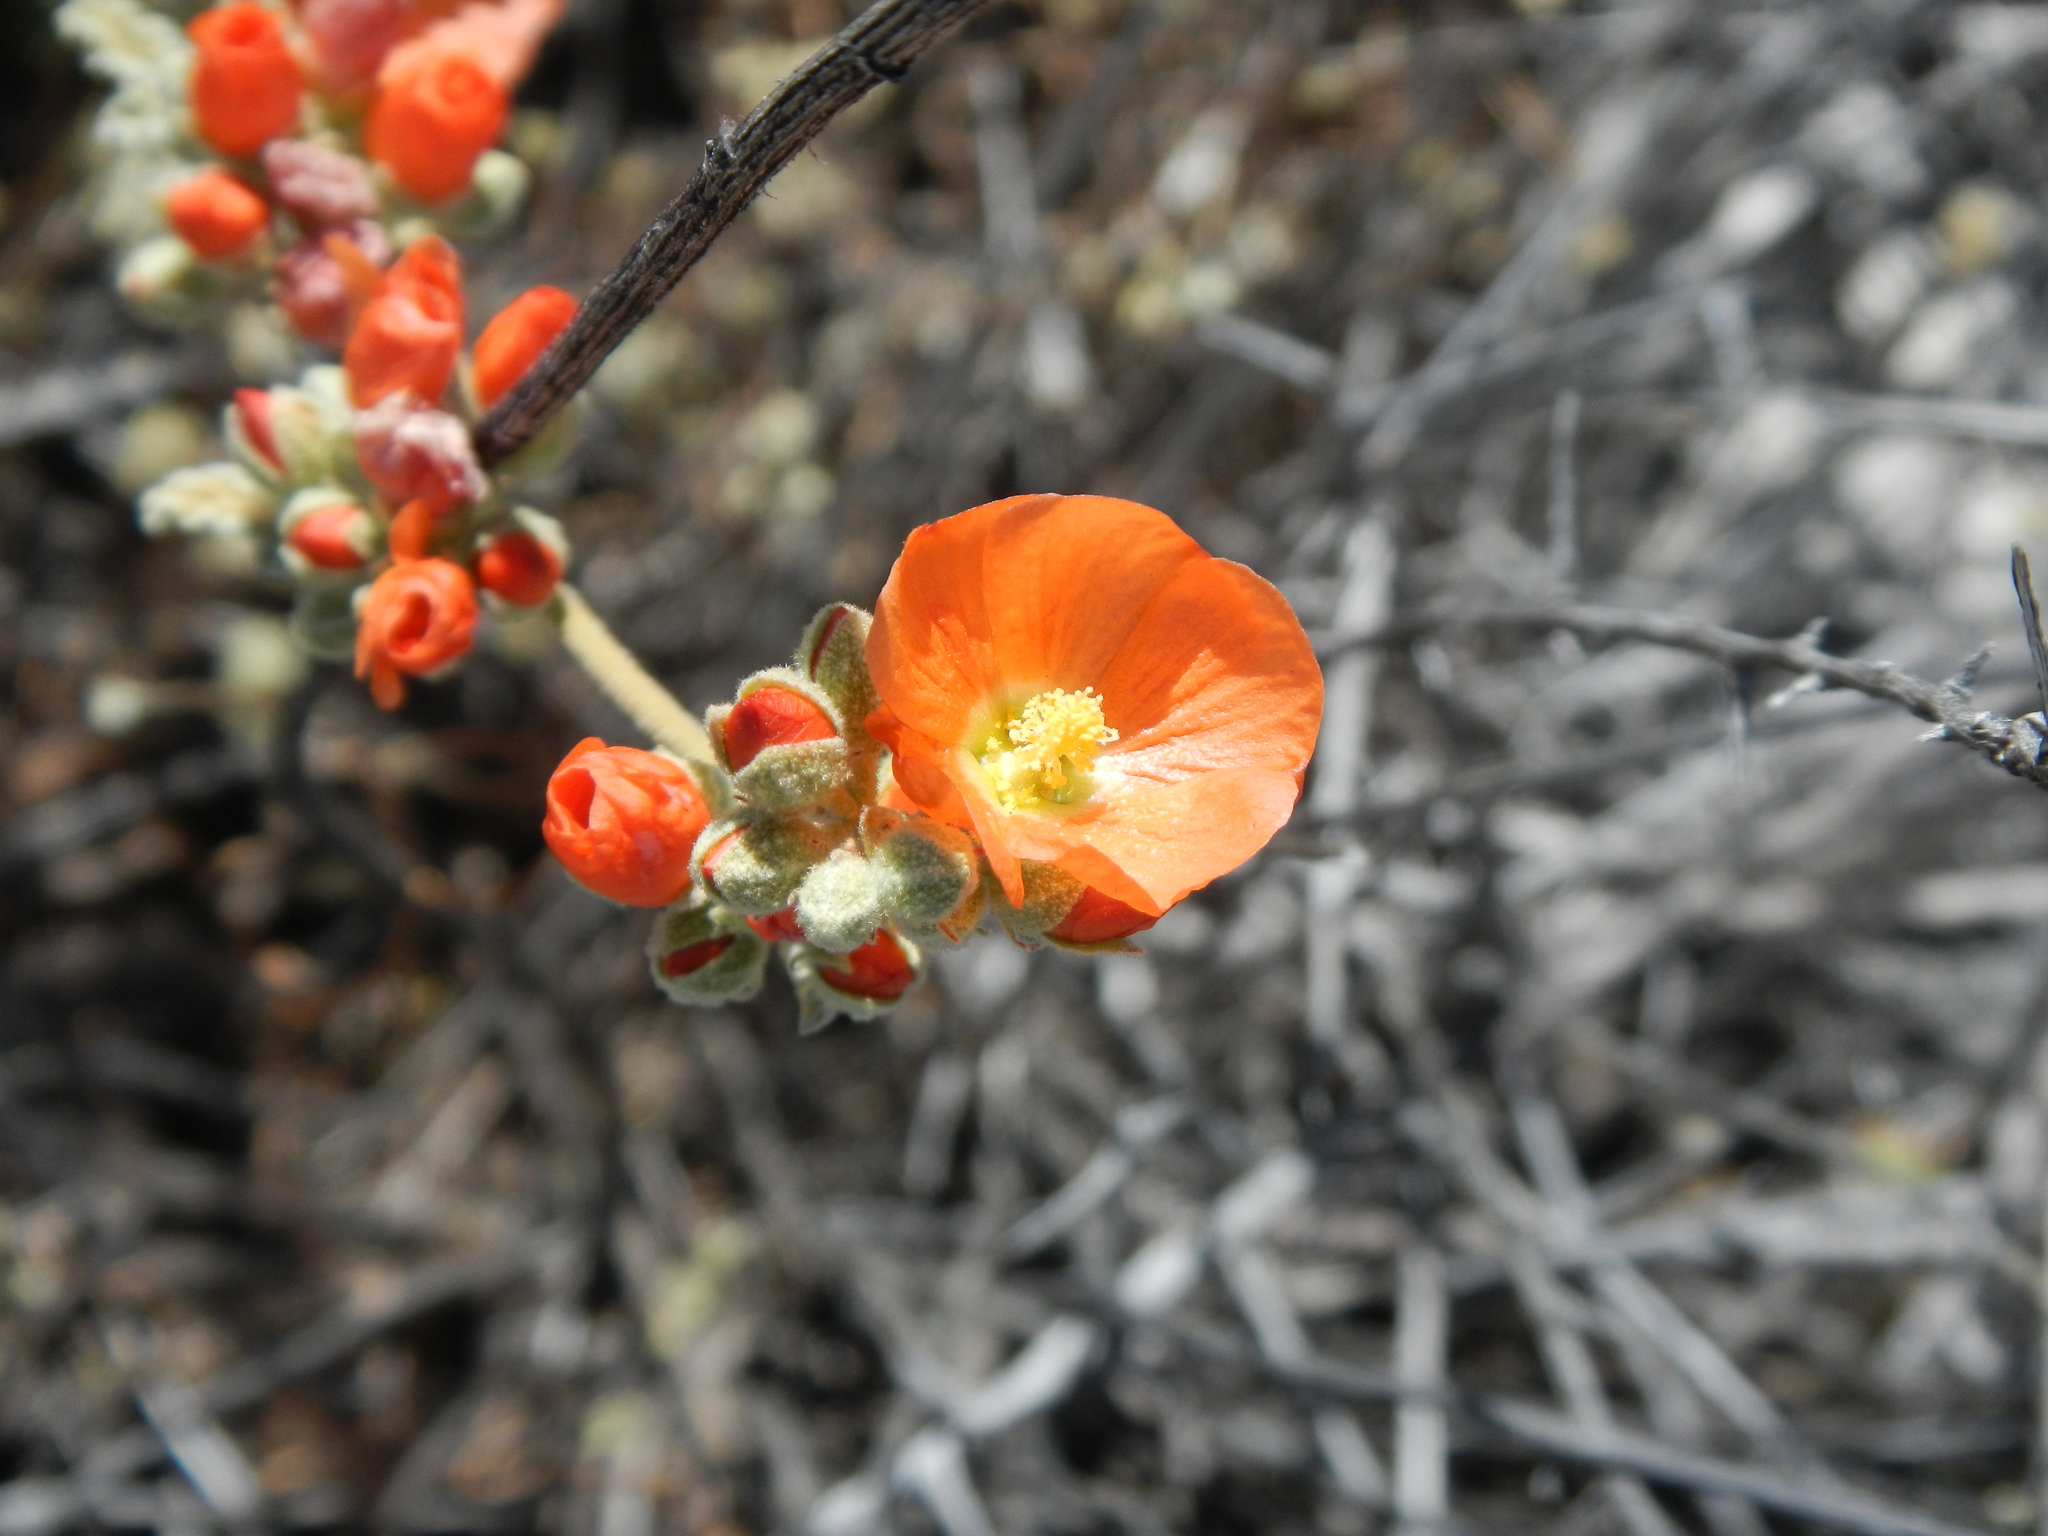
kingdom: Plantae
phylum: Tracheophyta
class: Magnoliopsida
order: Malvales
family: Malvaceae
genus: Sphaeralcea
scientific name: Sphaeralcea ambigua
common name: Apricot globe-mallow
